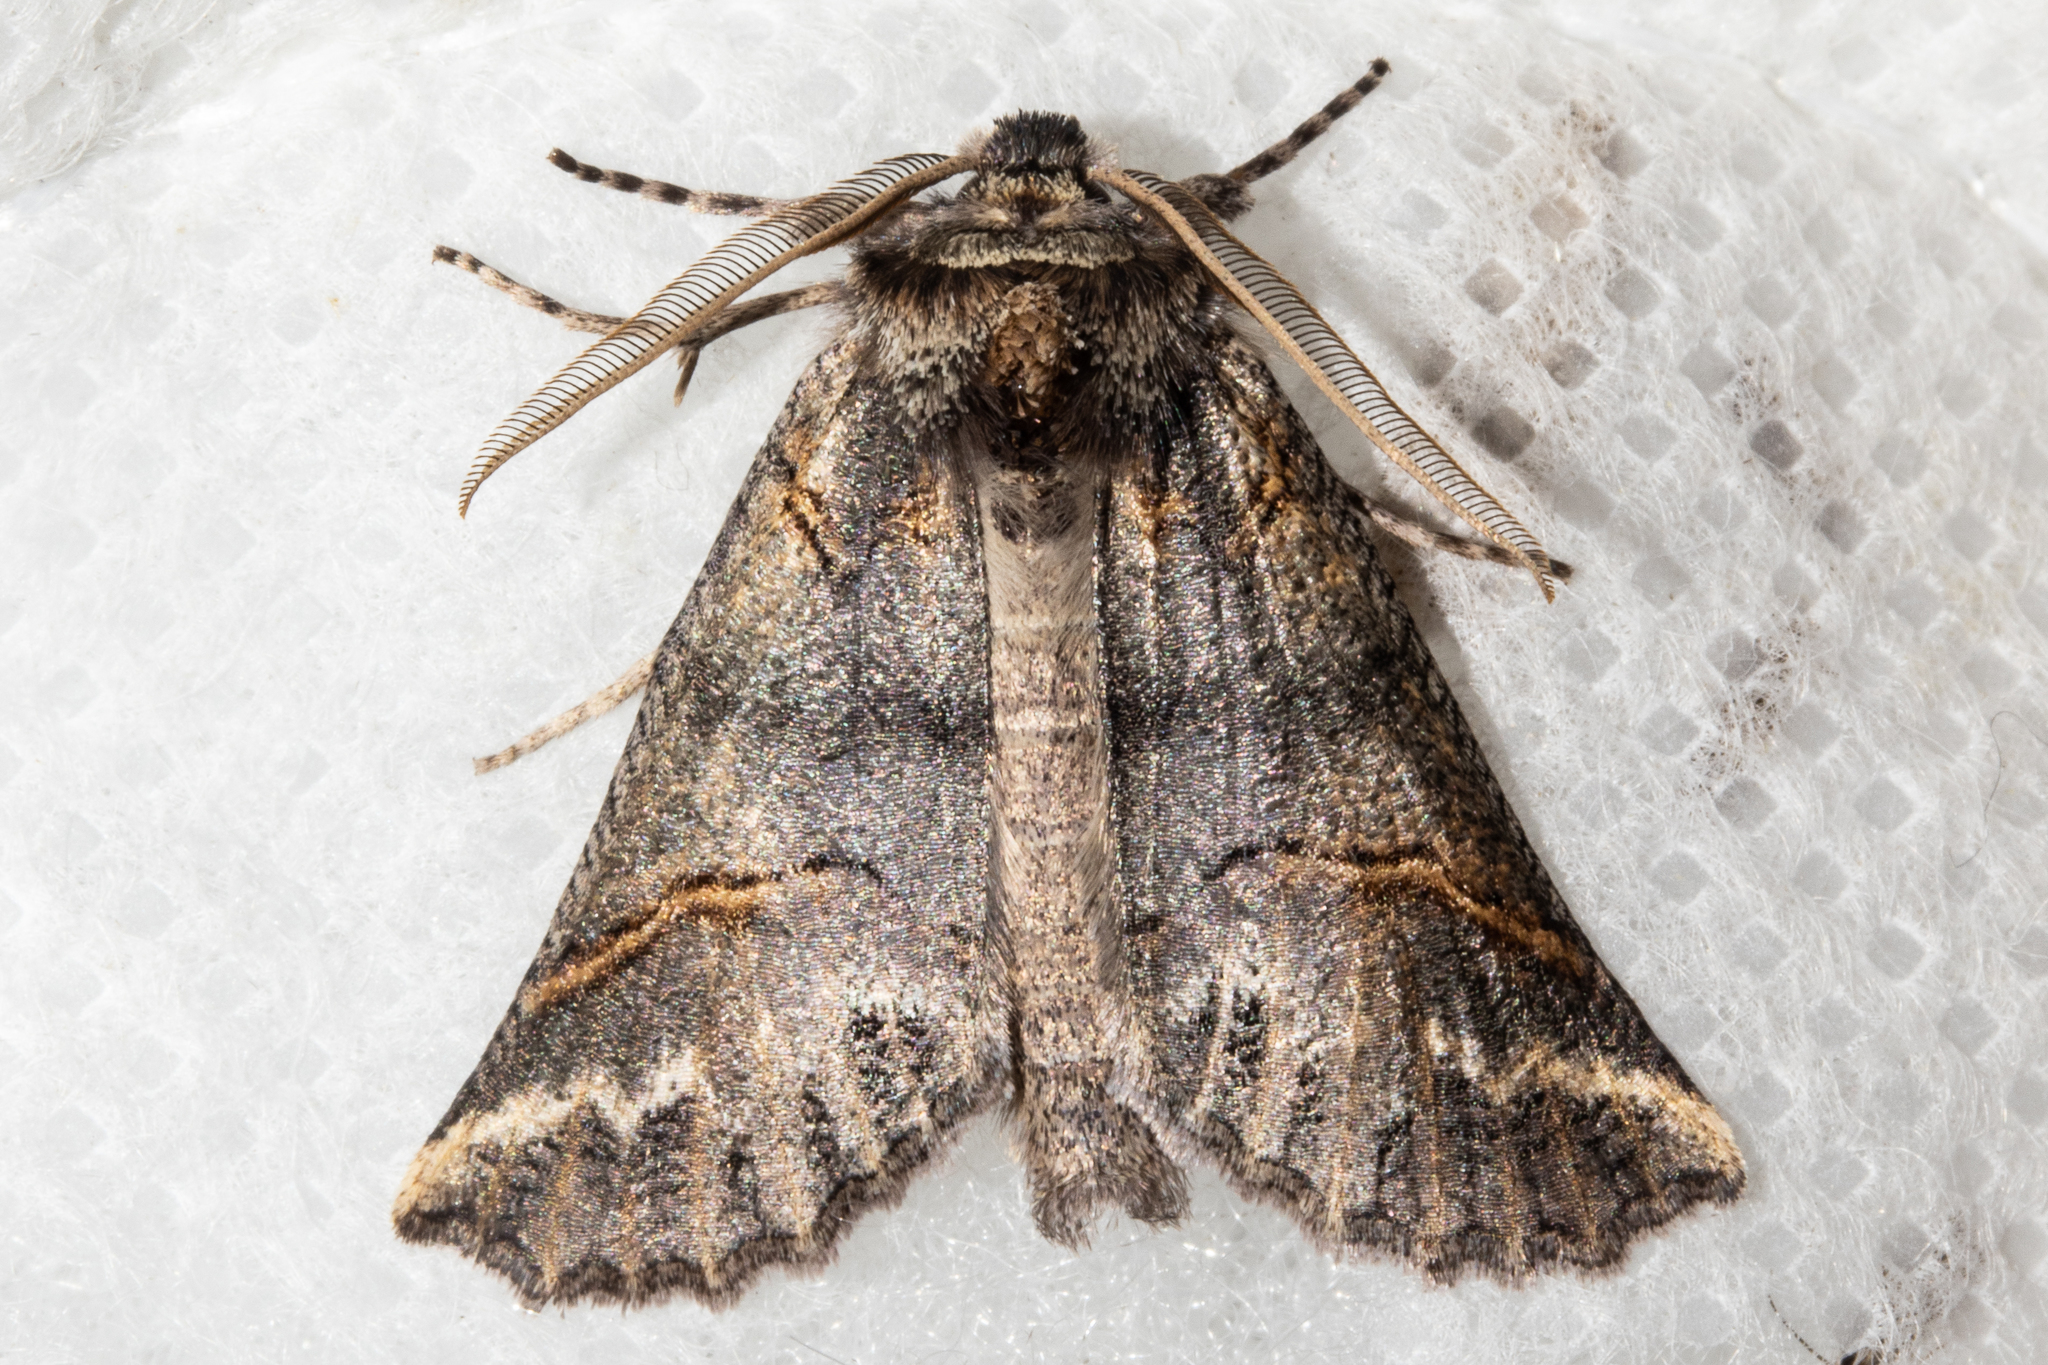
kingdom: Animalia
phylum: Arthropoda
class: Insecta
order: Lepidoptera
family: Geometridae
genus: Declana
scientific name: Declana
